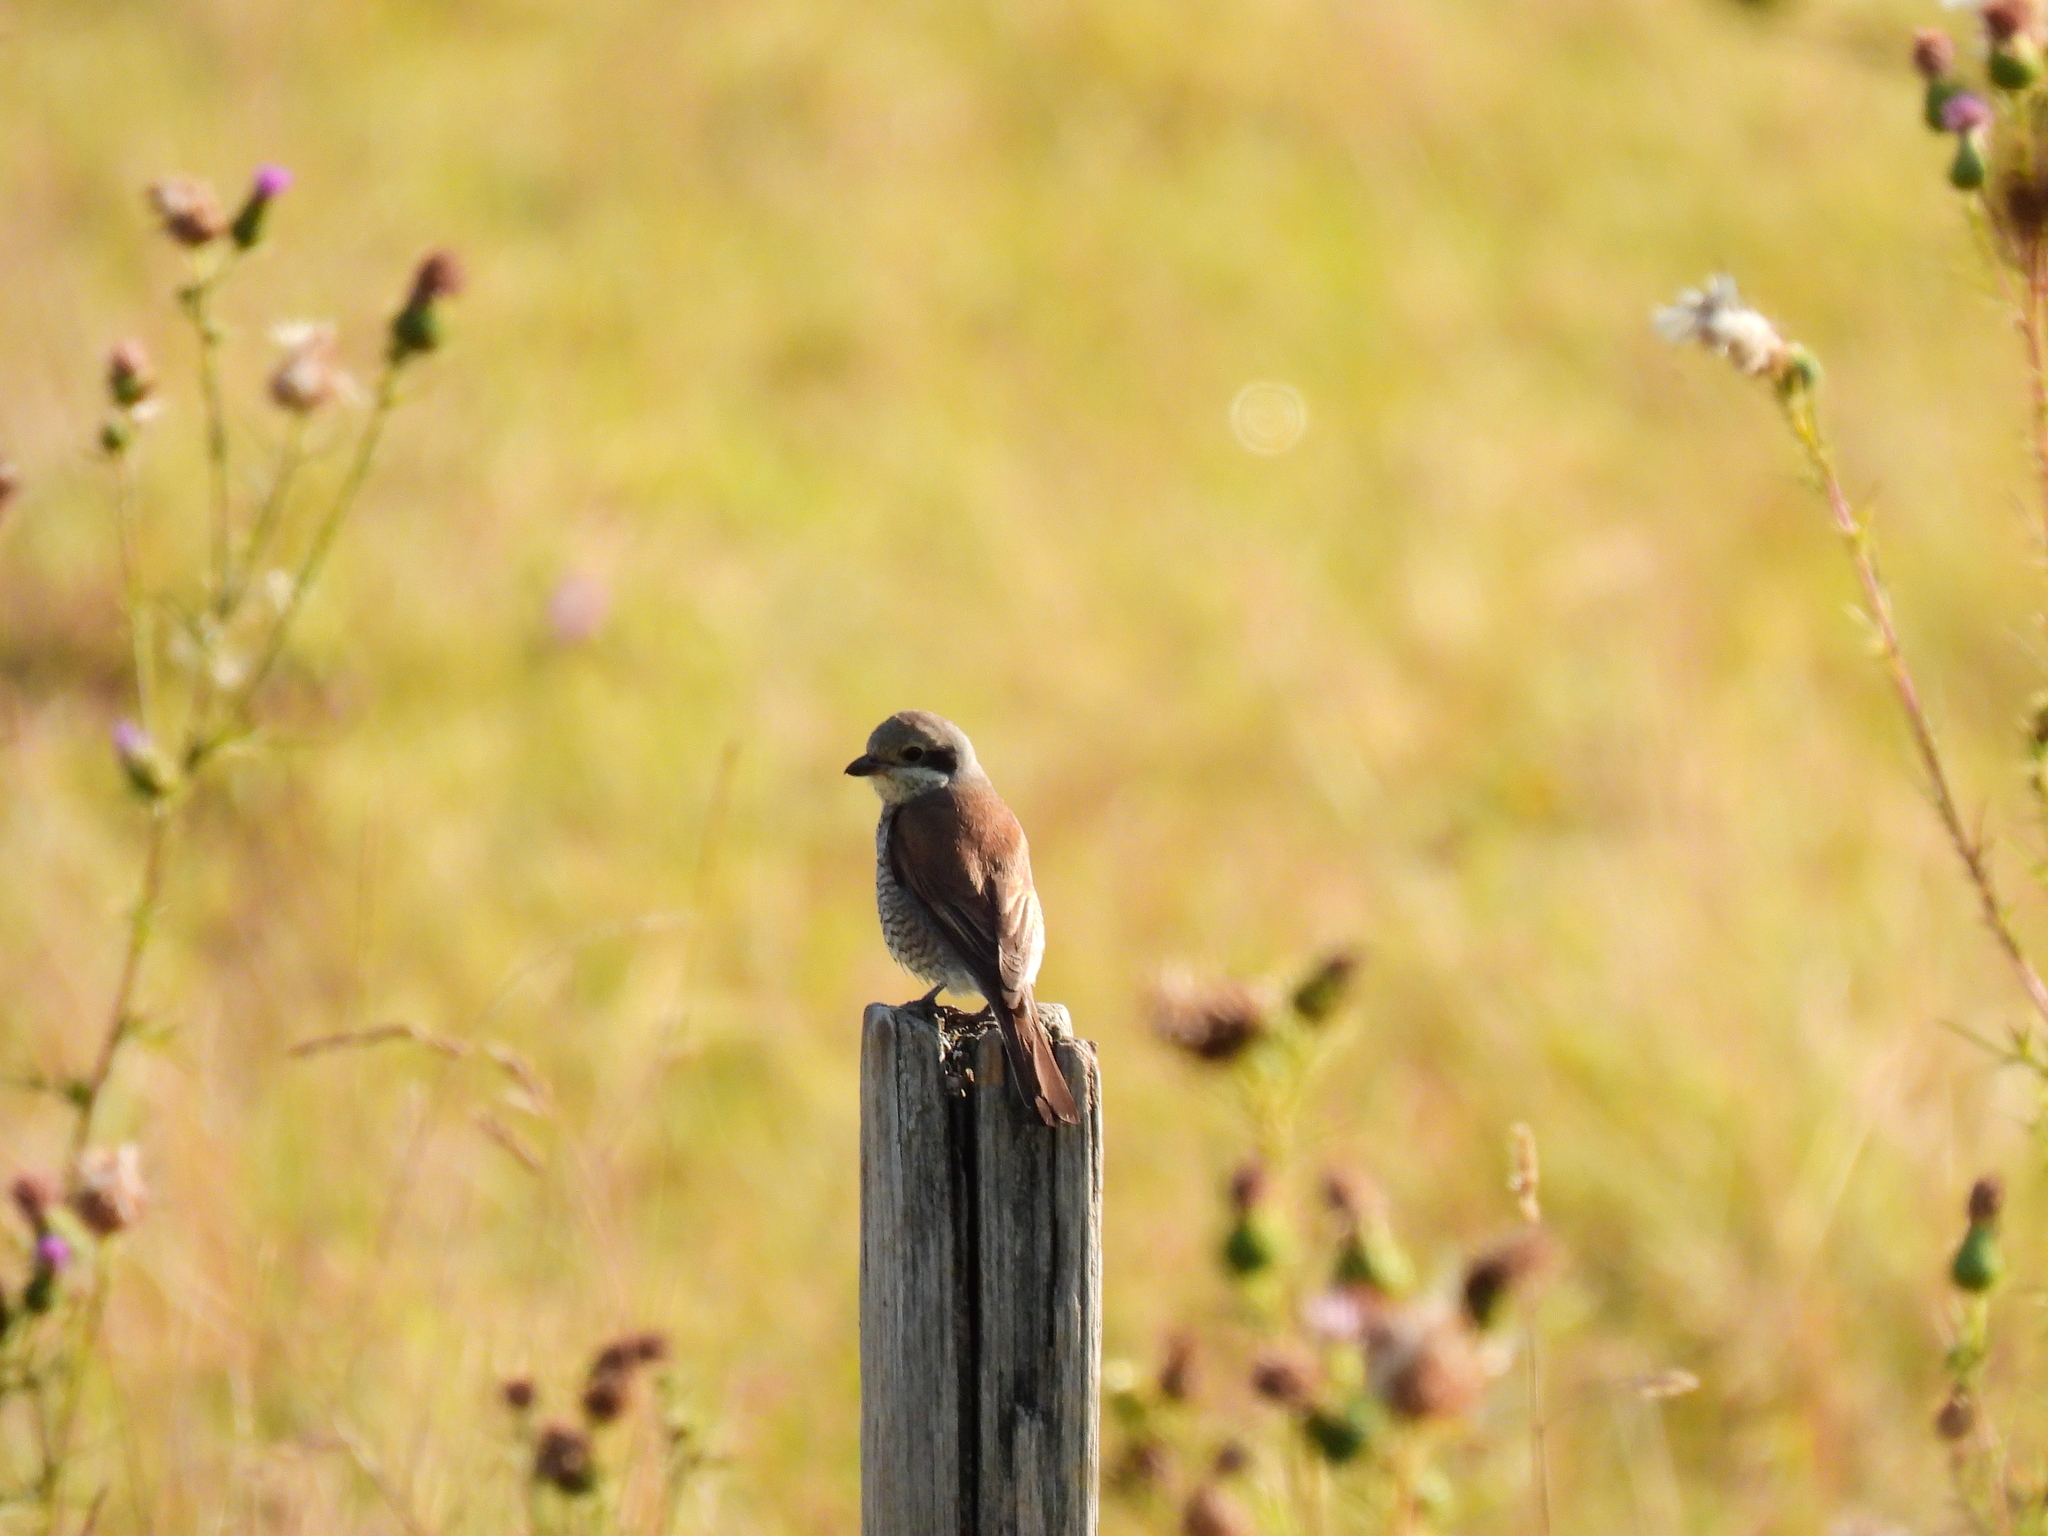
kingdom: Animalia
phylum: Chordata
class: Aves
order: Passeriformes
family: Laniidae
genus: Lanius
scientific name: Lanius collurio
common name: Red-backed shrike
